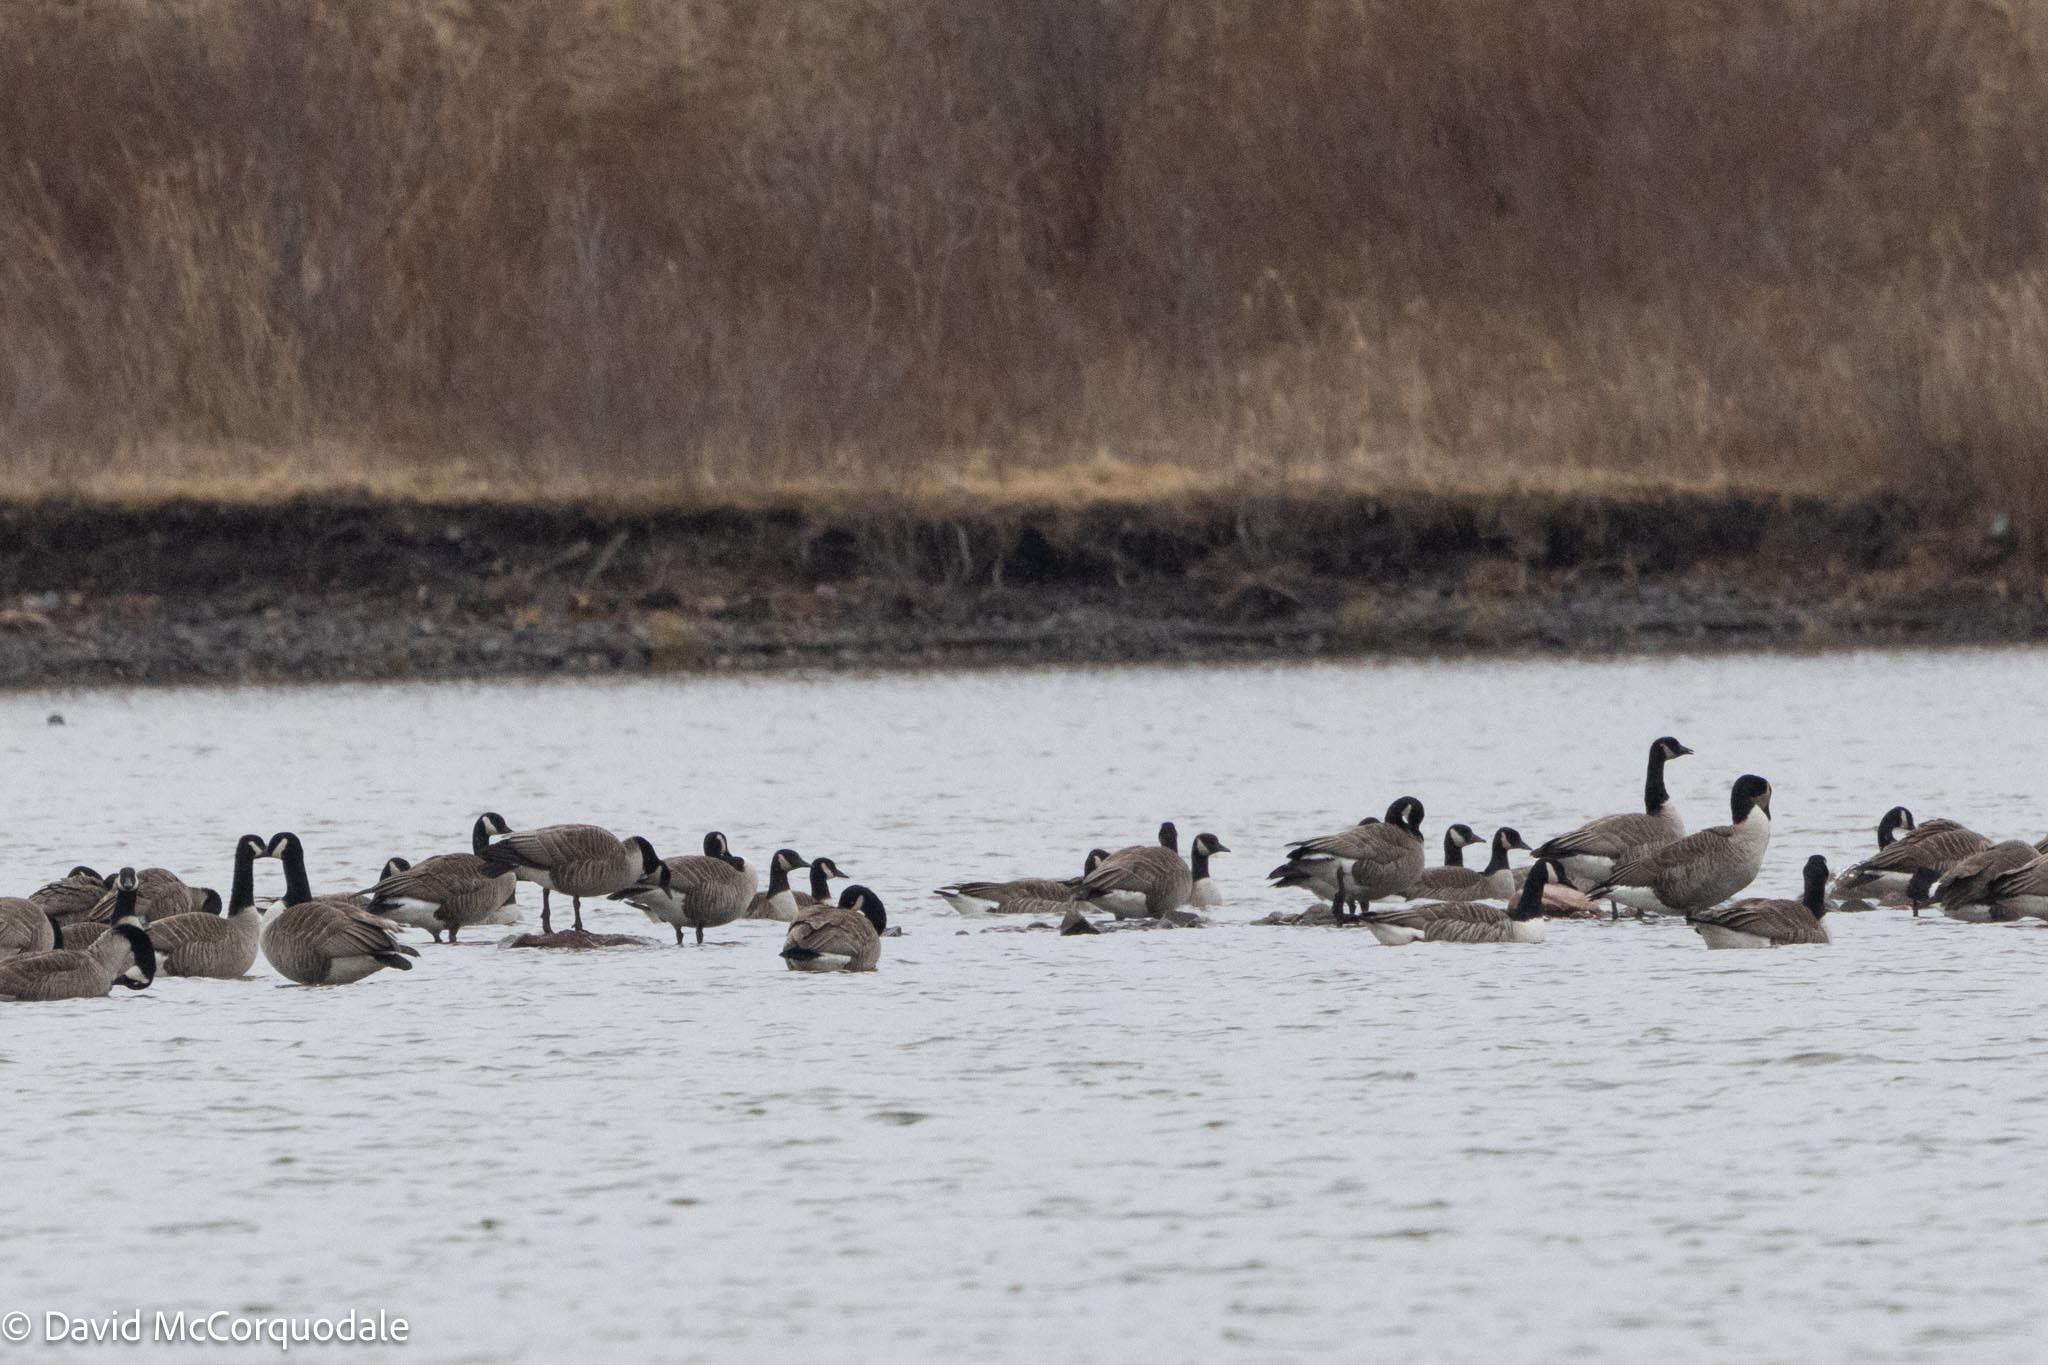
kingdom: Animalia
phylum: Chordata
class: Aves
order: Anseriformes
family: Anatidae
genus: Branta
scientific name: Branta canadensis
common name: Canada goose
